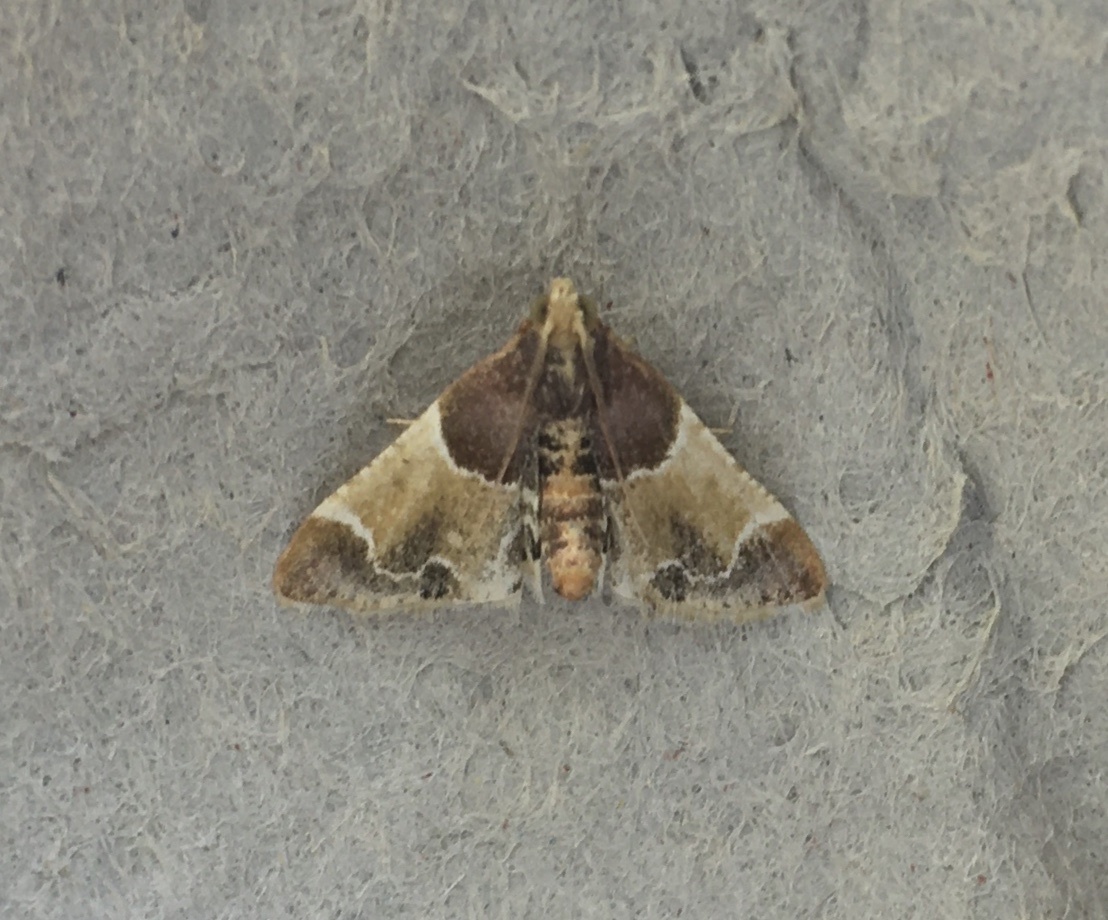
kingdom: Animalia
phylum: Arthropoda
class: Insecta
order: Lepidoptera
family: Pyralidae
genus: Pyralis
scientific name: Pyralis farinalis
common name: Meal moth
